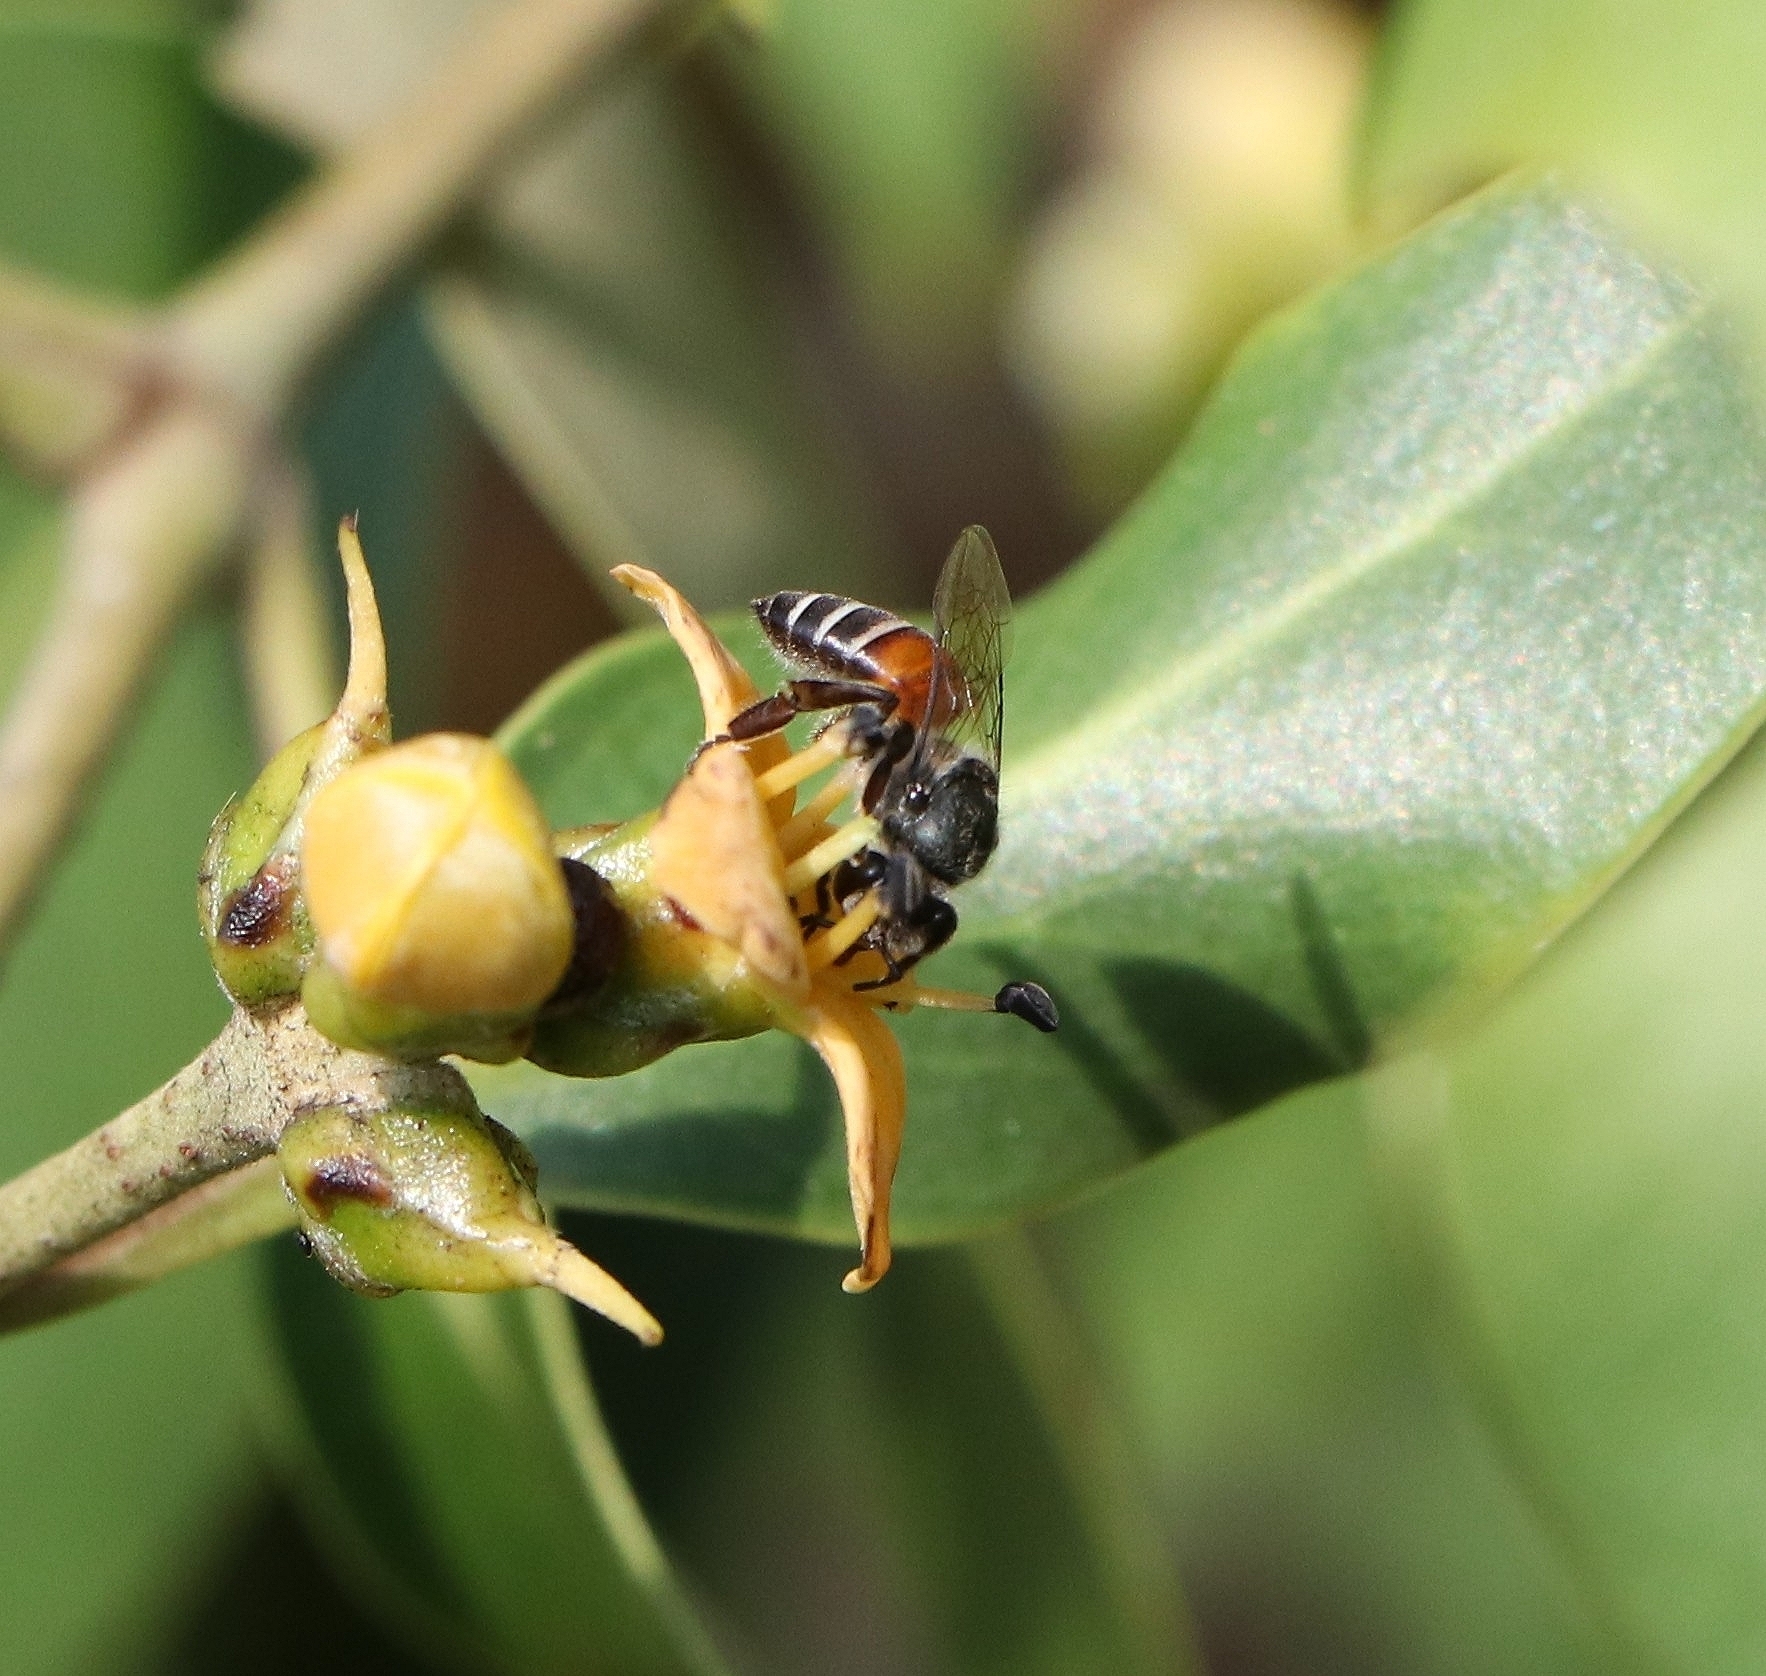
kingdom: Animalia
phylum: Arthropoda
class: Insecta
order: Hymenoptera
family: Apidae
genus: Apis
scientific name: Apis florea
